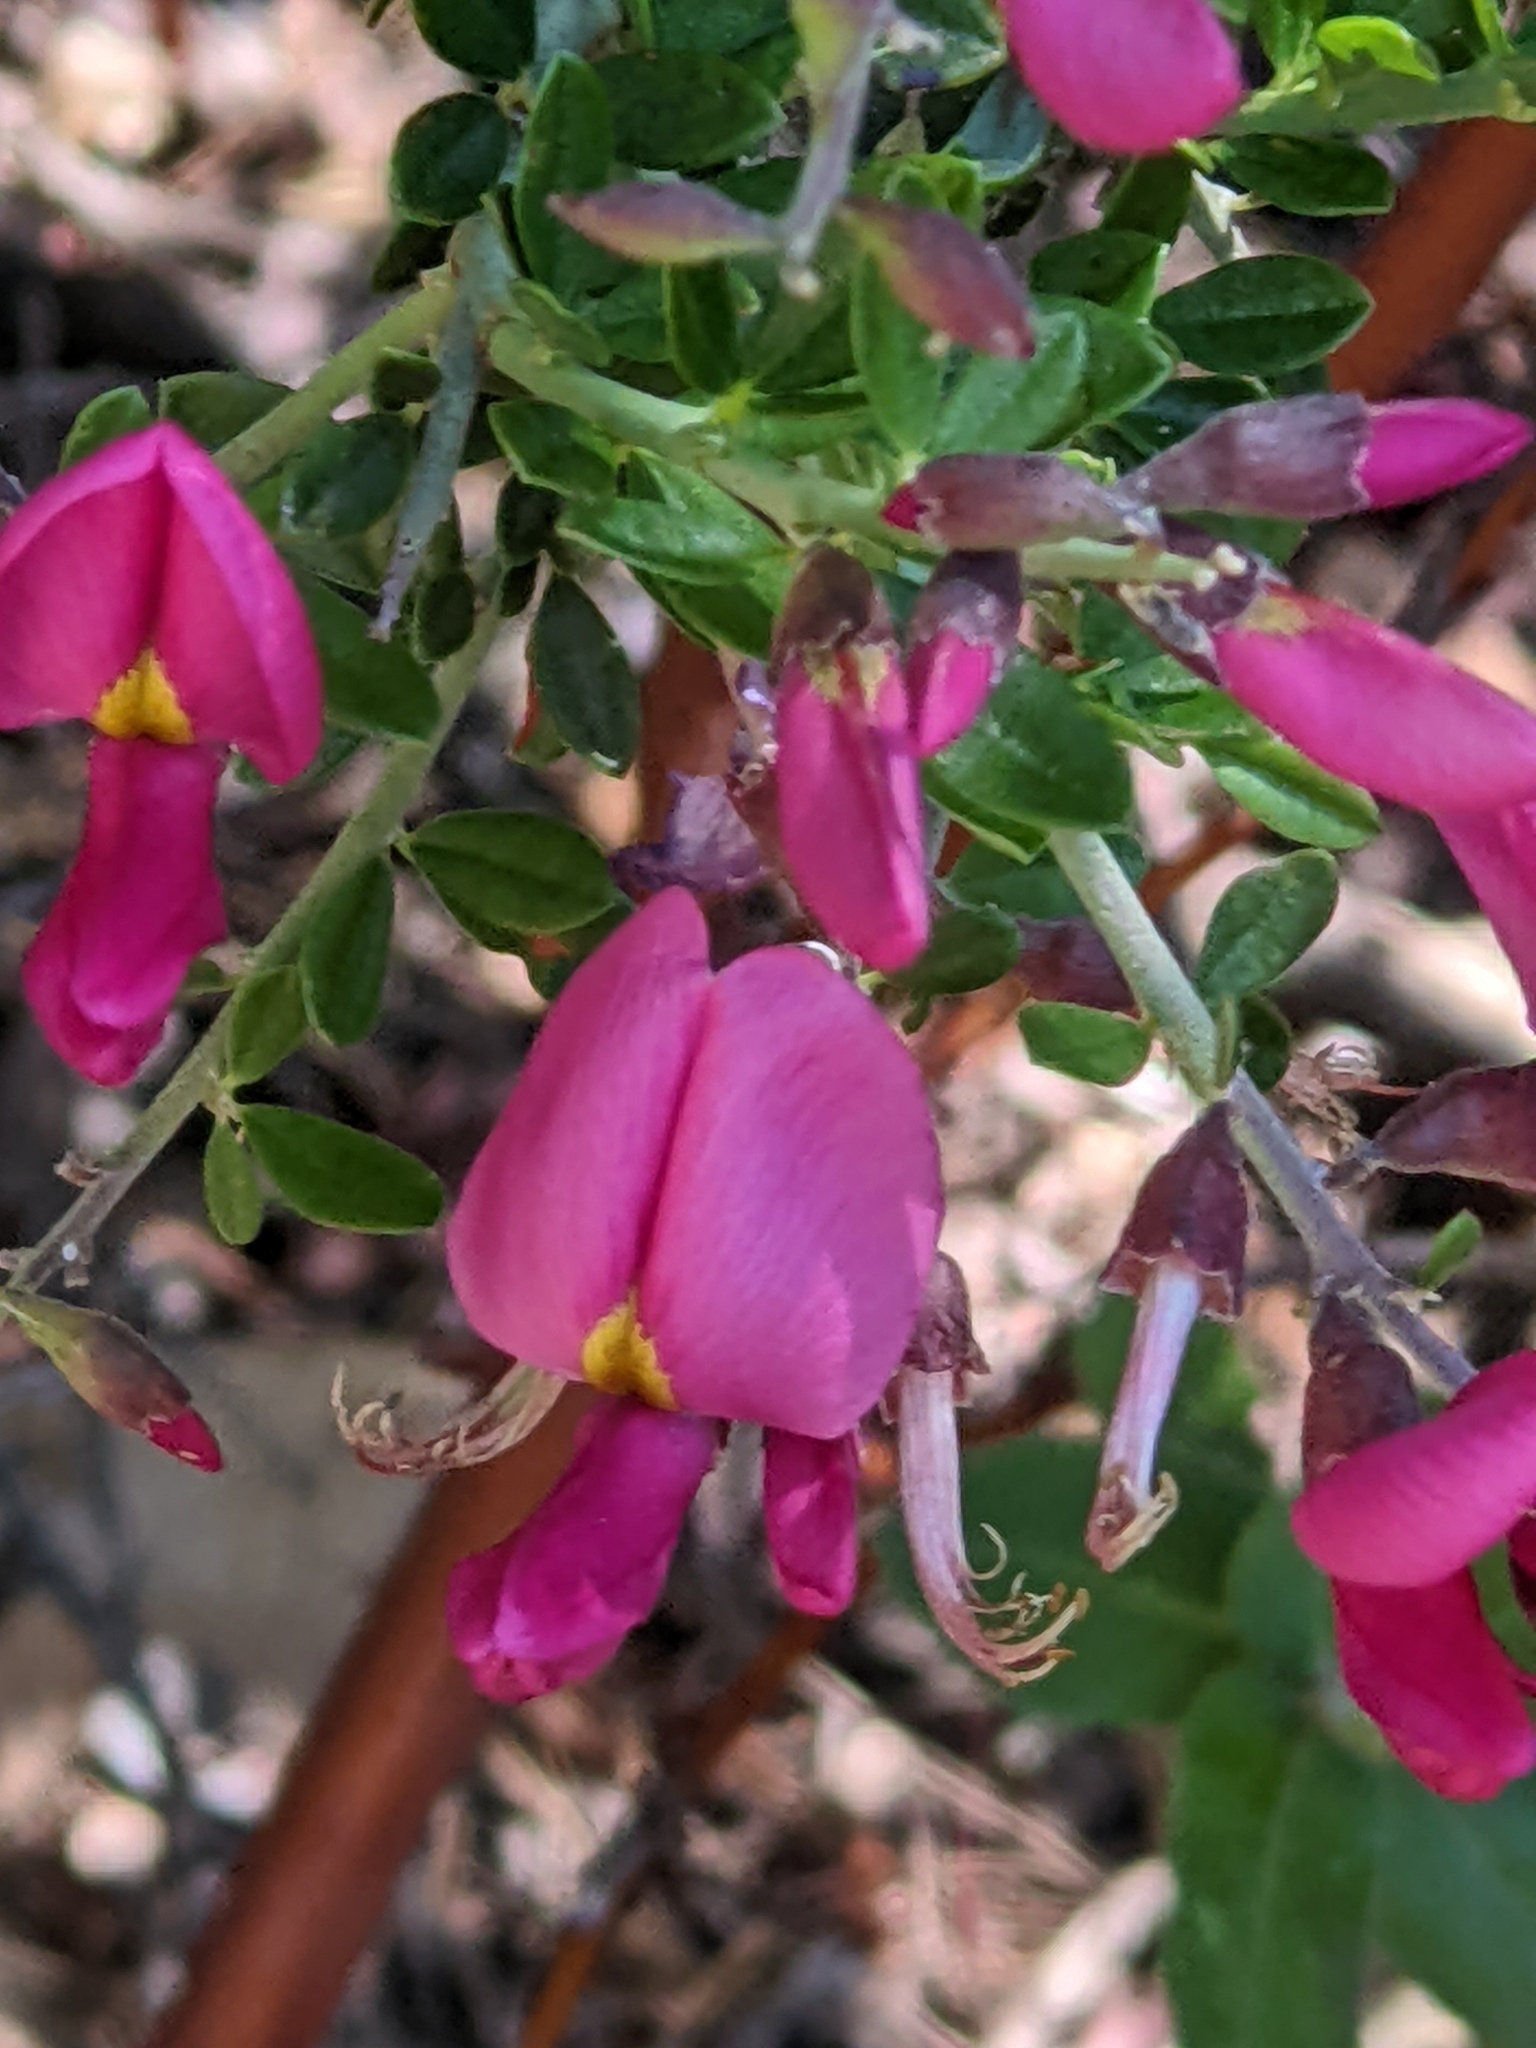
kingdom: Plantae
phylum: Tracheophyta
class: Magnoliopsida
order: Fabales
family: Fabaceae
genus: Pickeringia
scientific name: Pickeringia montana
